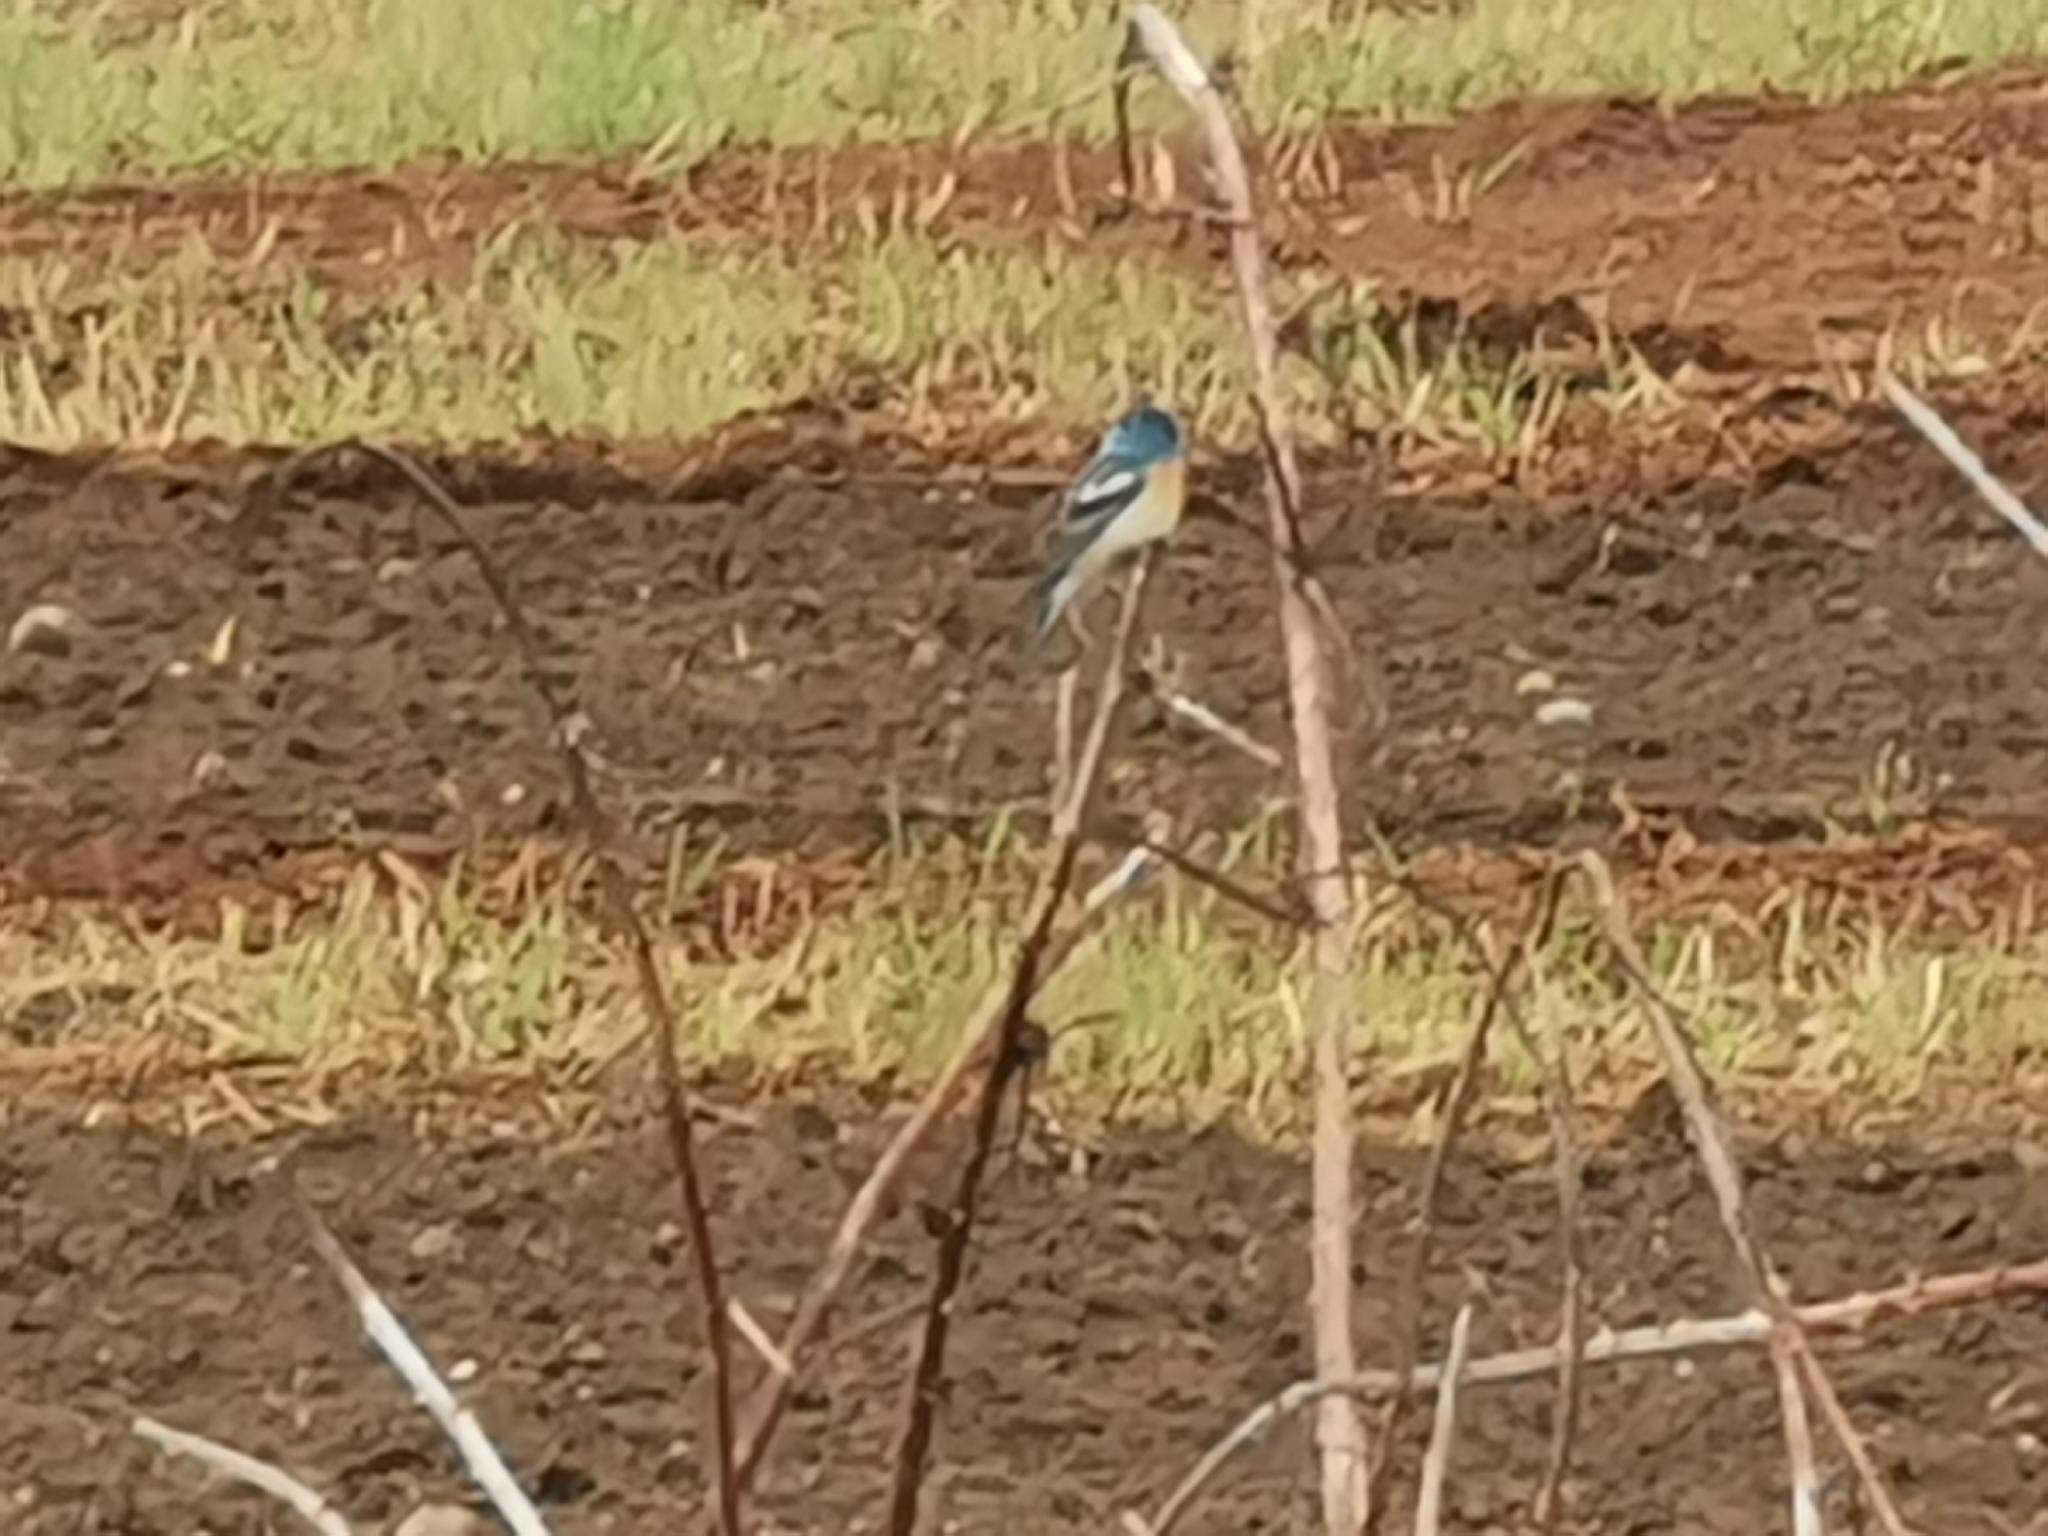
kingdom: Animalia
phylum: Chordata
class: Aves
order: Passeriformes
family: Cardinalidae
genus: Passerina
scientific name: Passerina amoena
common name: Lazuli bunting
